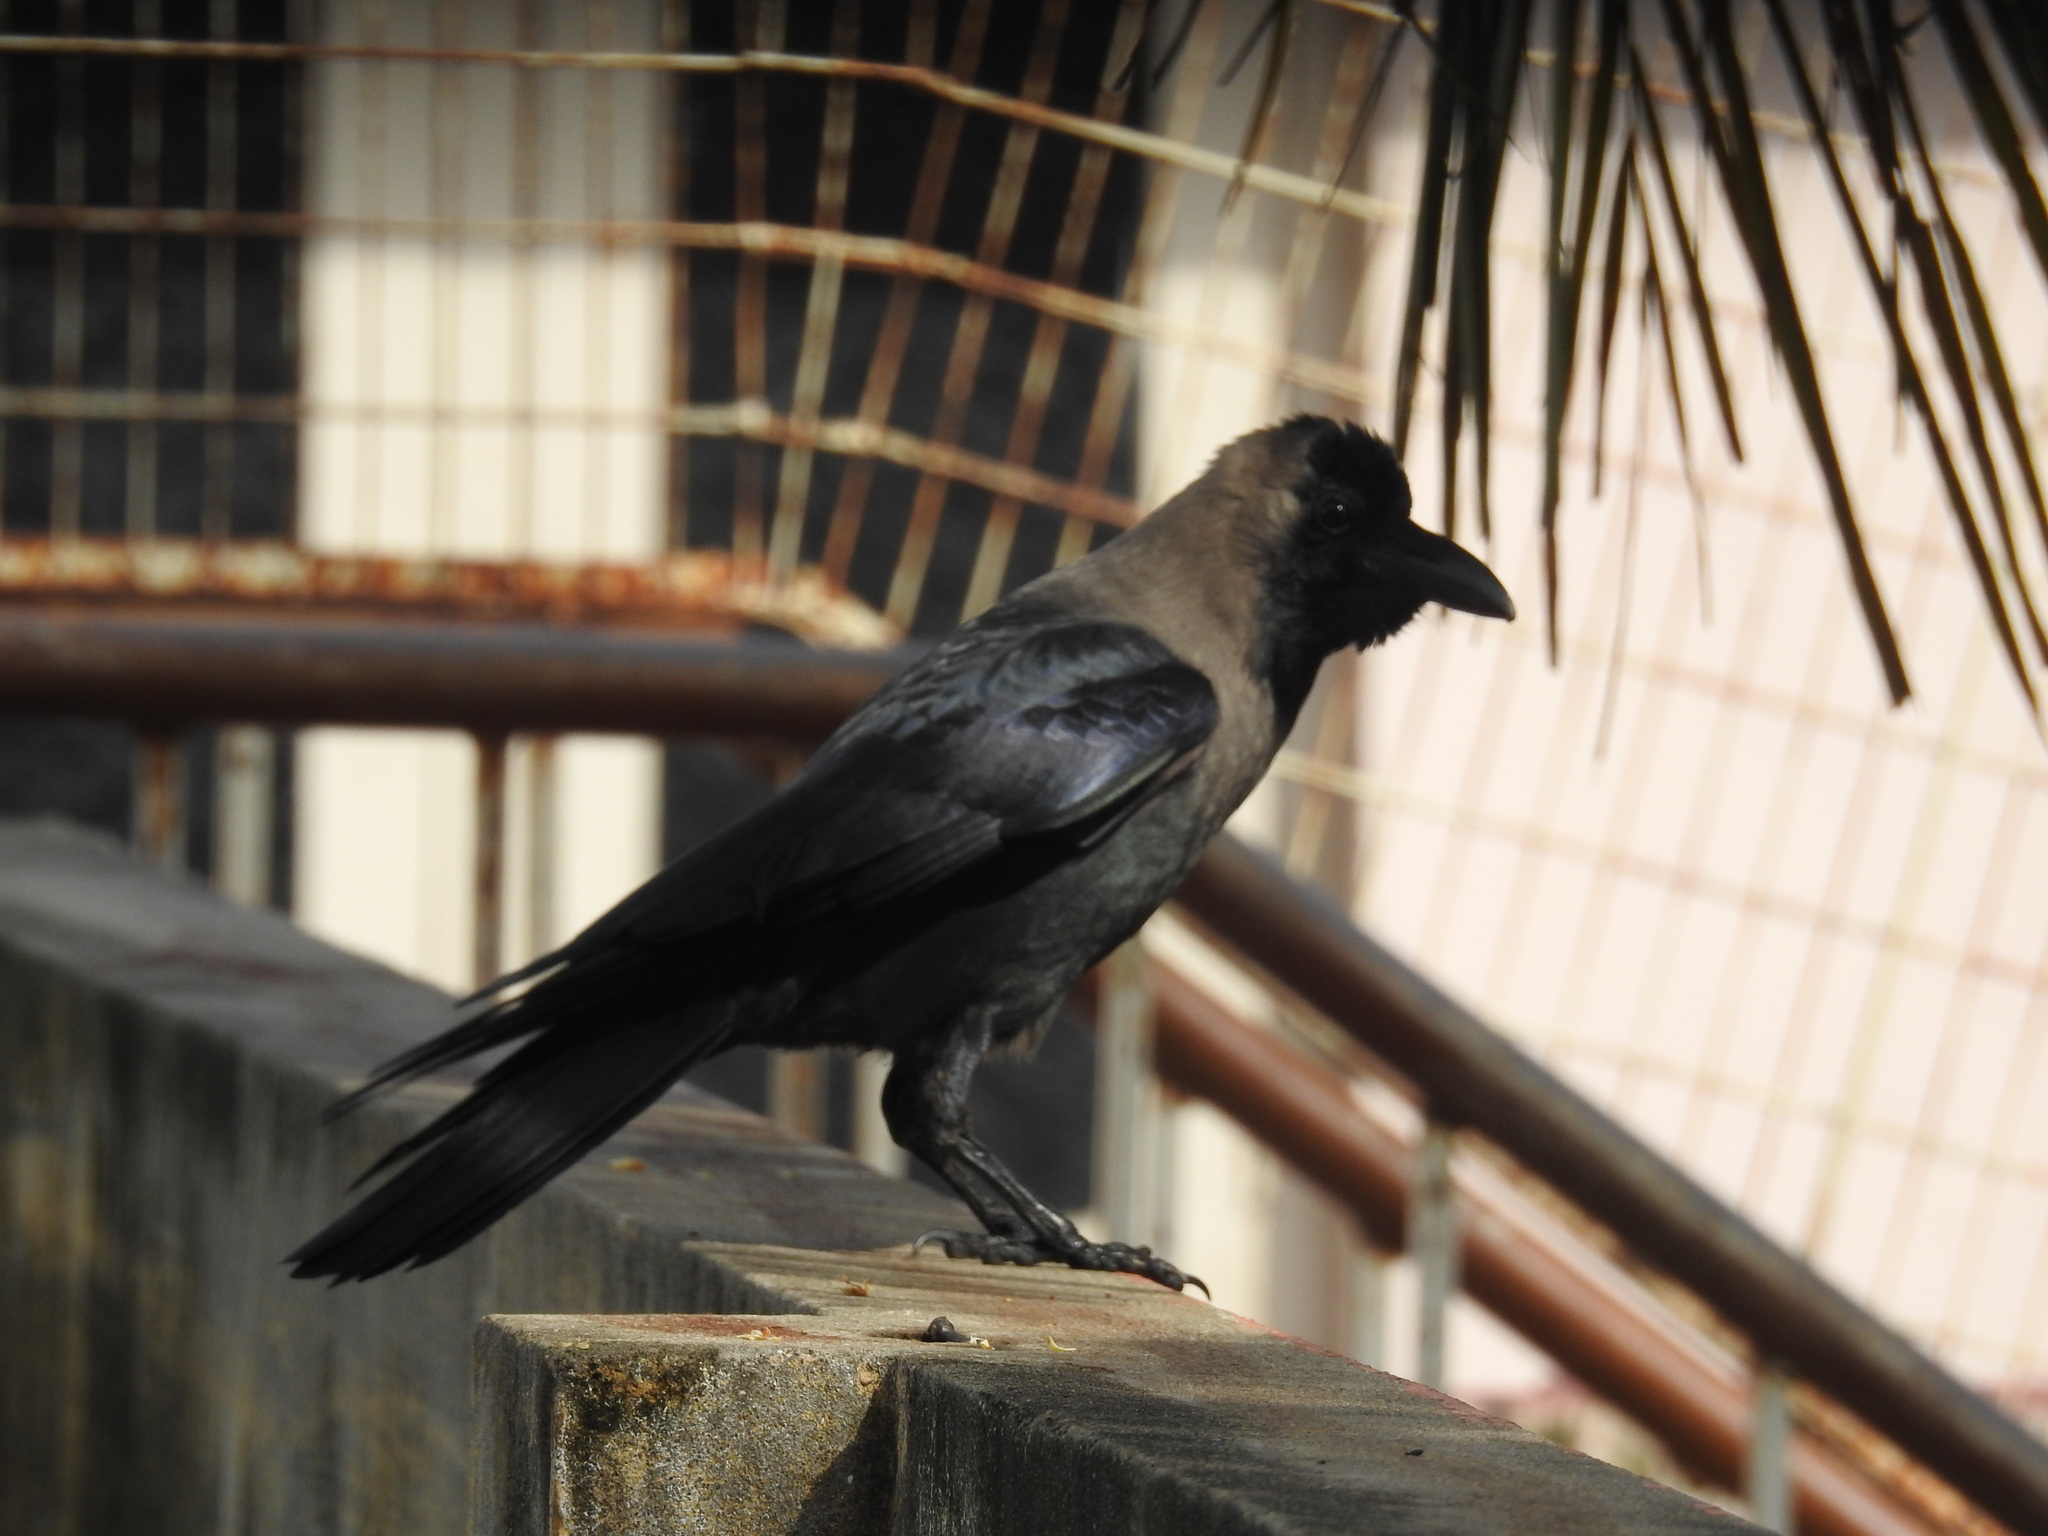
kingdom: Animalia
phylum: Chordata
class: Aves
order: Passeriformes
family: Corvidae
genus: Corvus
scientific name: Corvus splendens
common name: House crow
